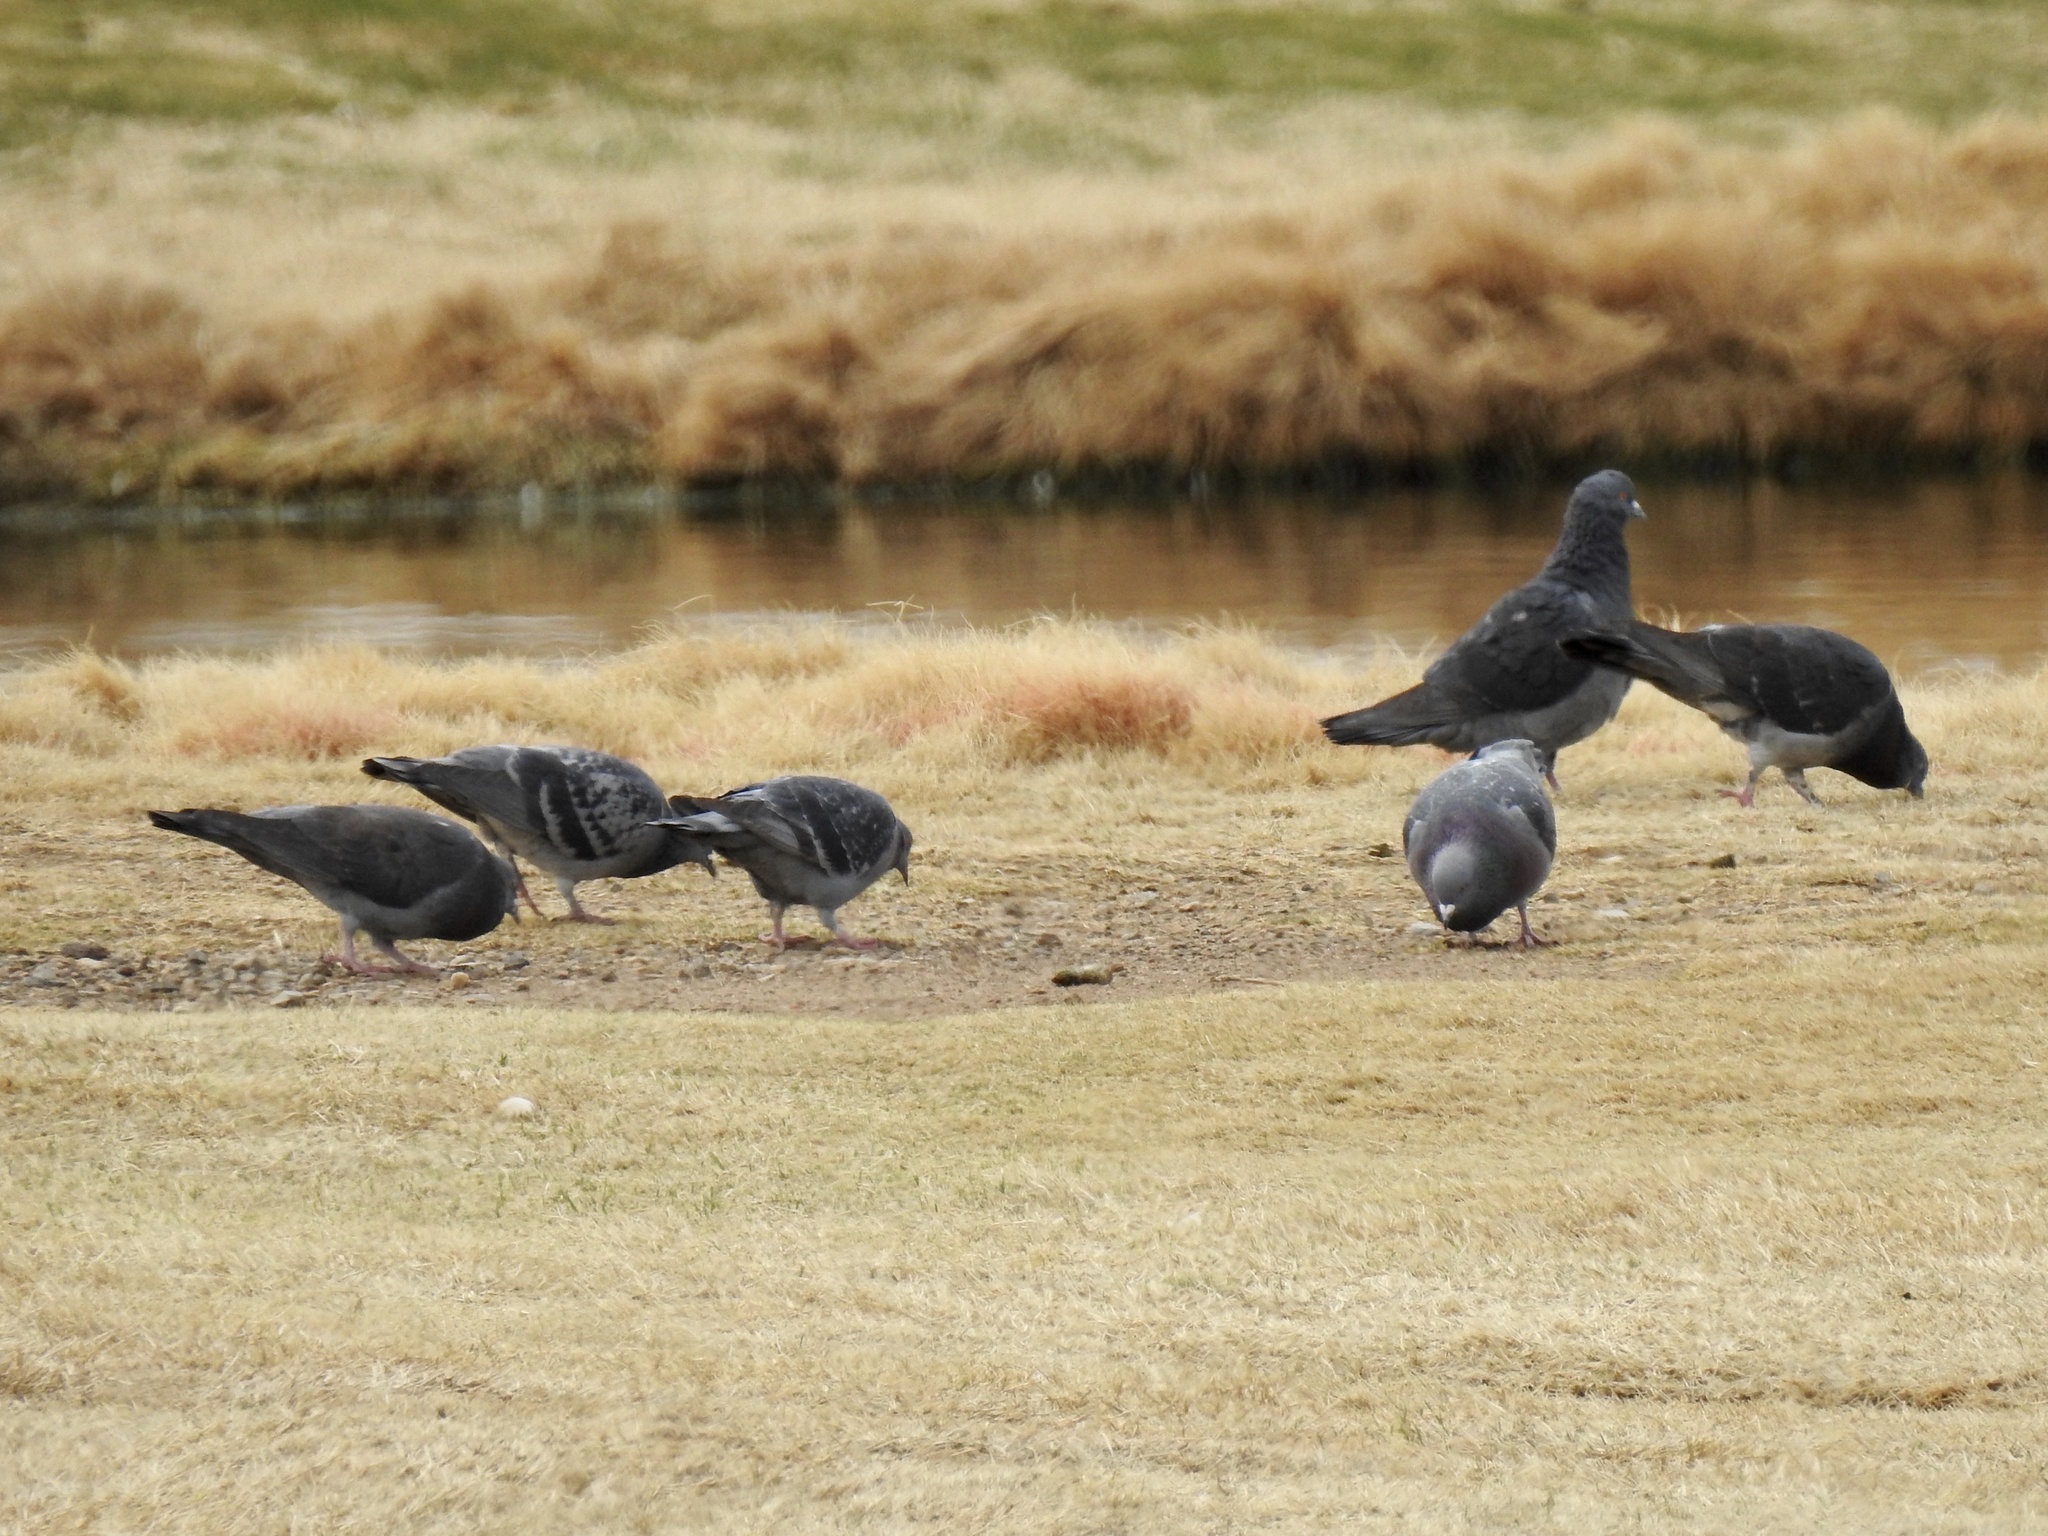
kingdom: Animalia
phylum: Chordata
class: Aves
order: Columbiformes
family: Columbidae
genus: Columba
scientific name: Columba livia
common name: Rock pigeon
